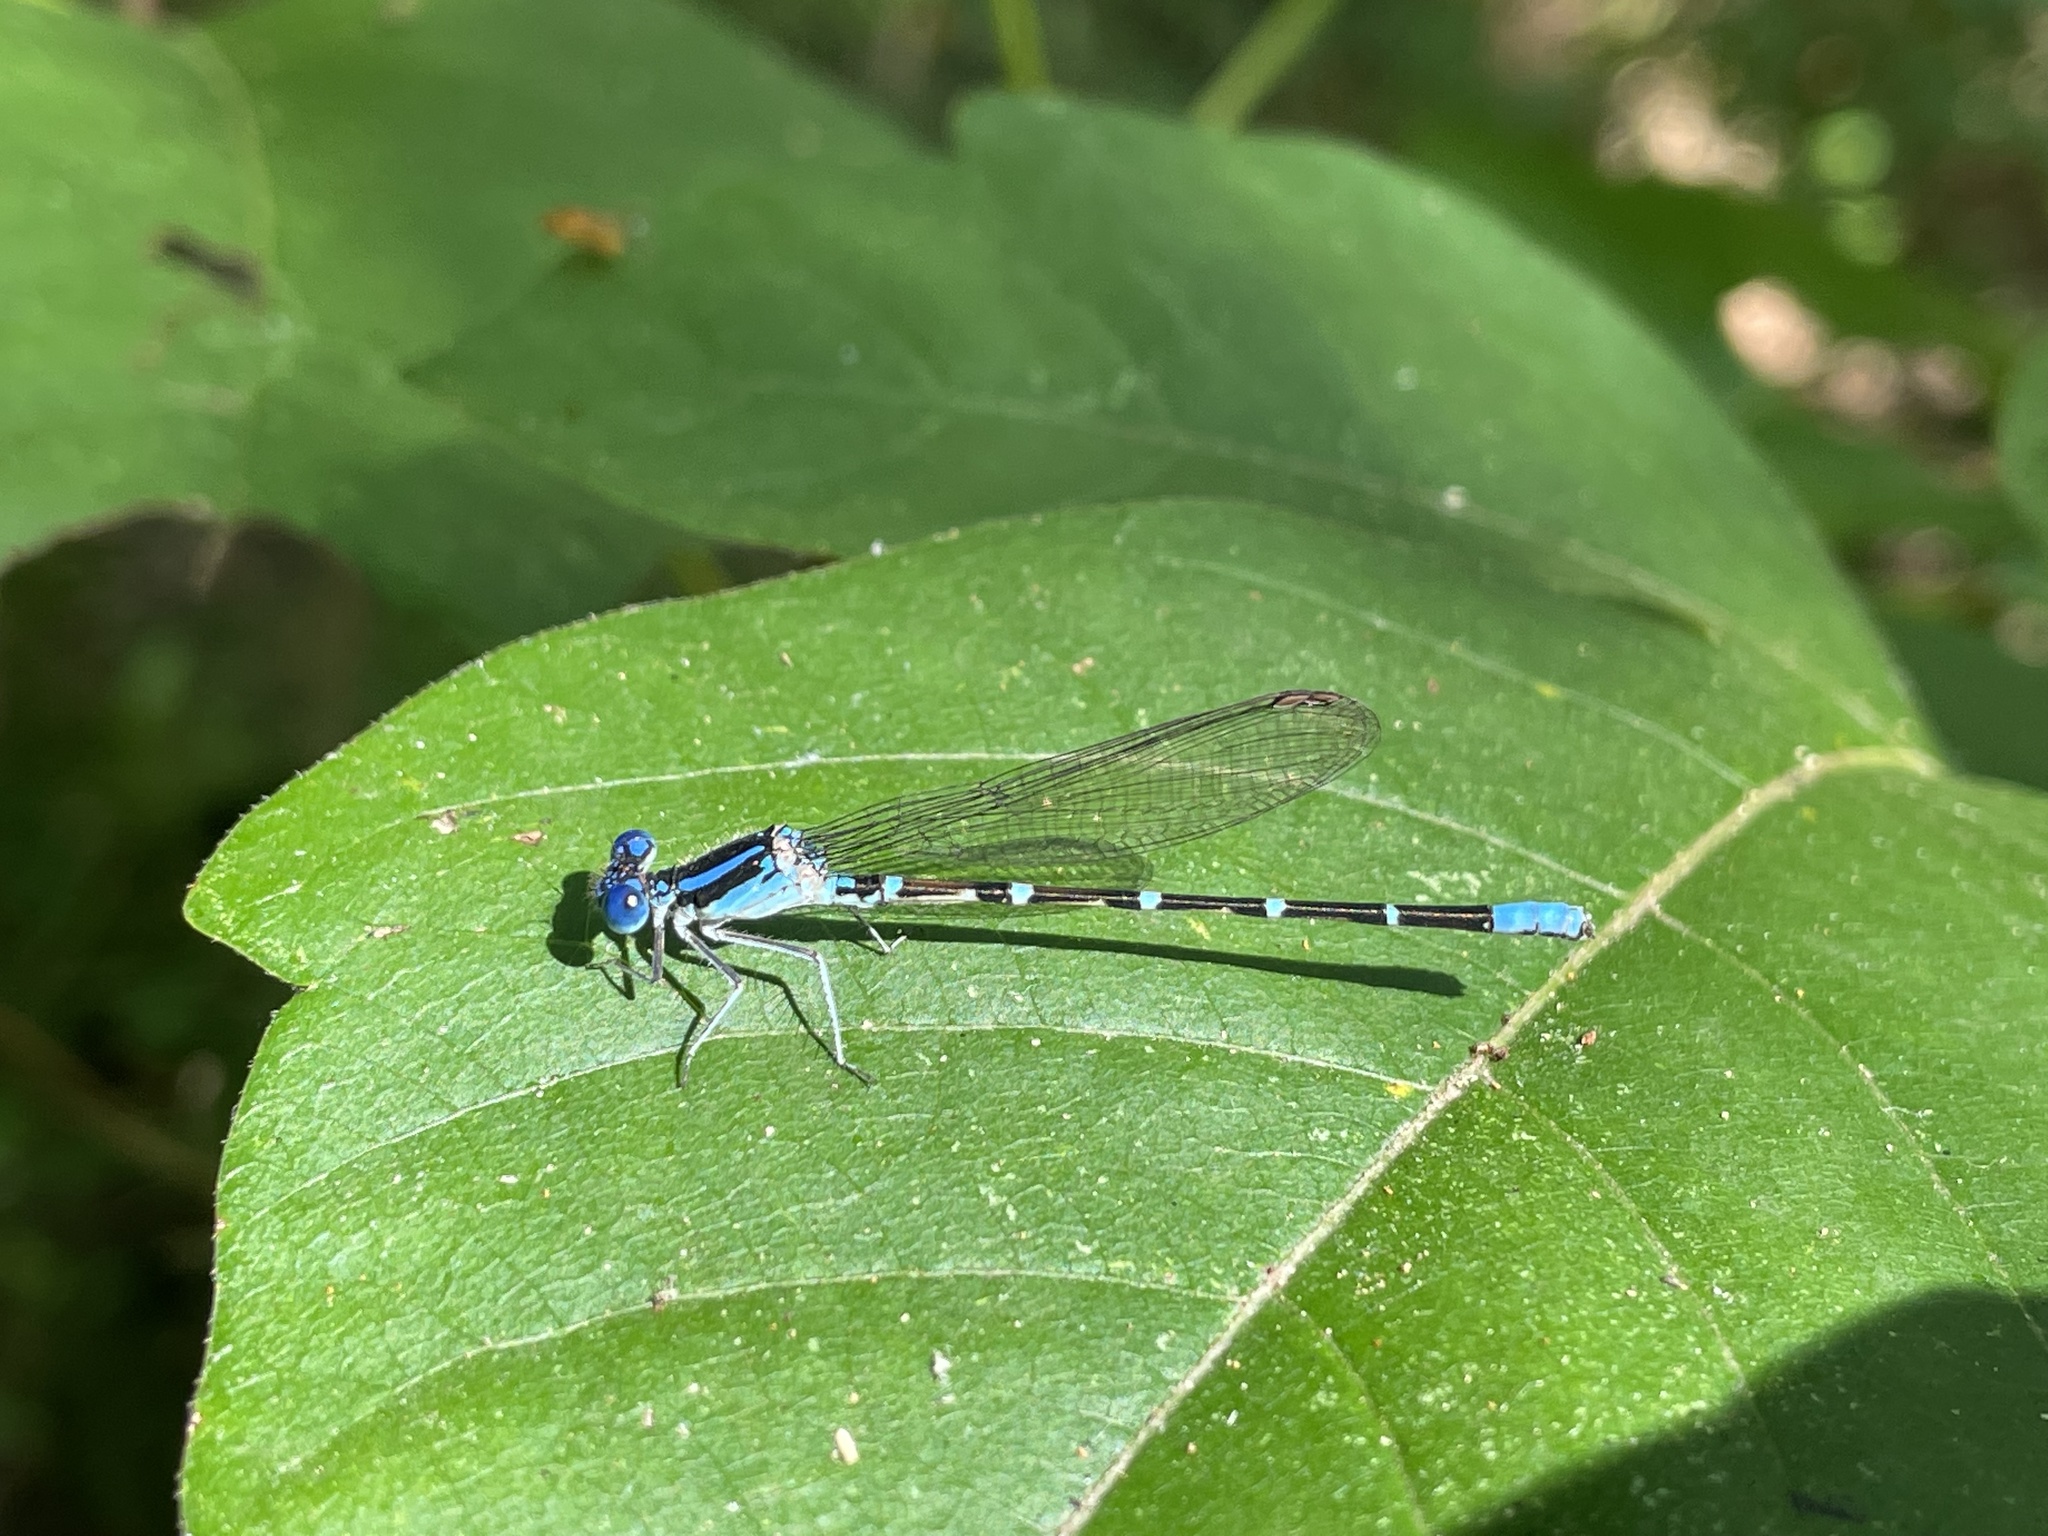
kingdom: Animalia
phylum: Arthropoda
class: Insecta
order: Odonata
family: Coenagrionidae
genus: Argia
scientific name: Argia sedula
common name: Blue-ringed dancer
